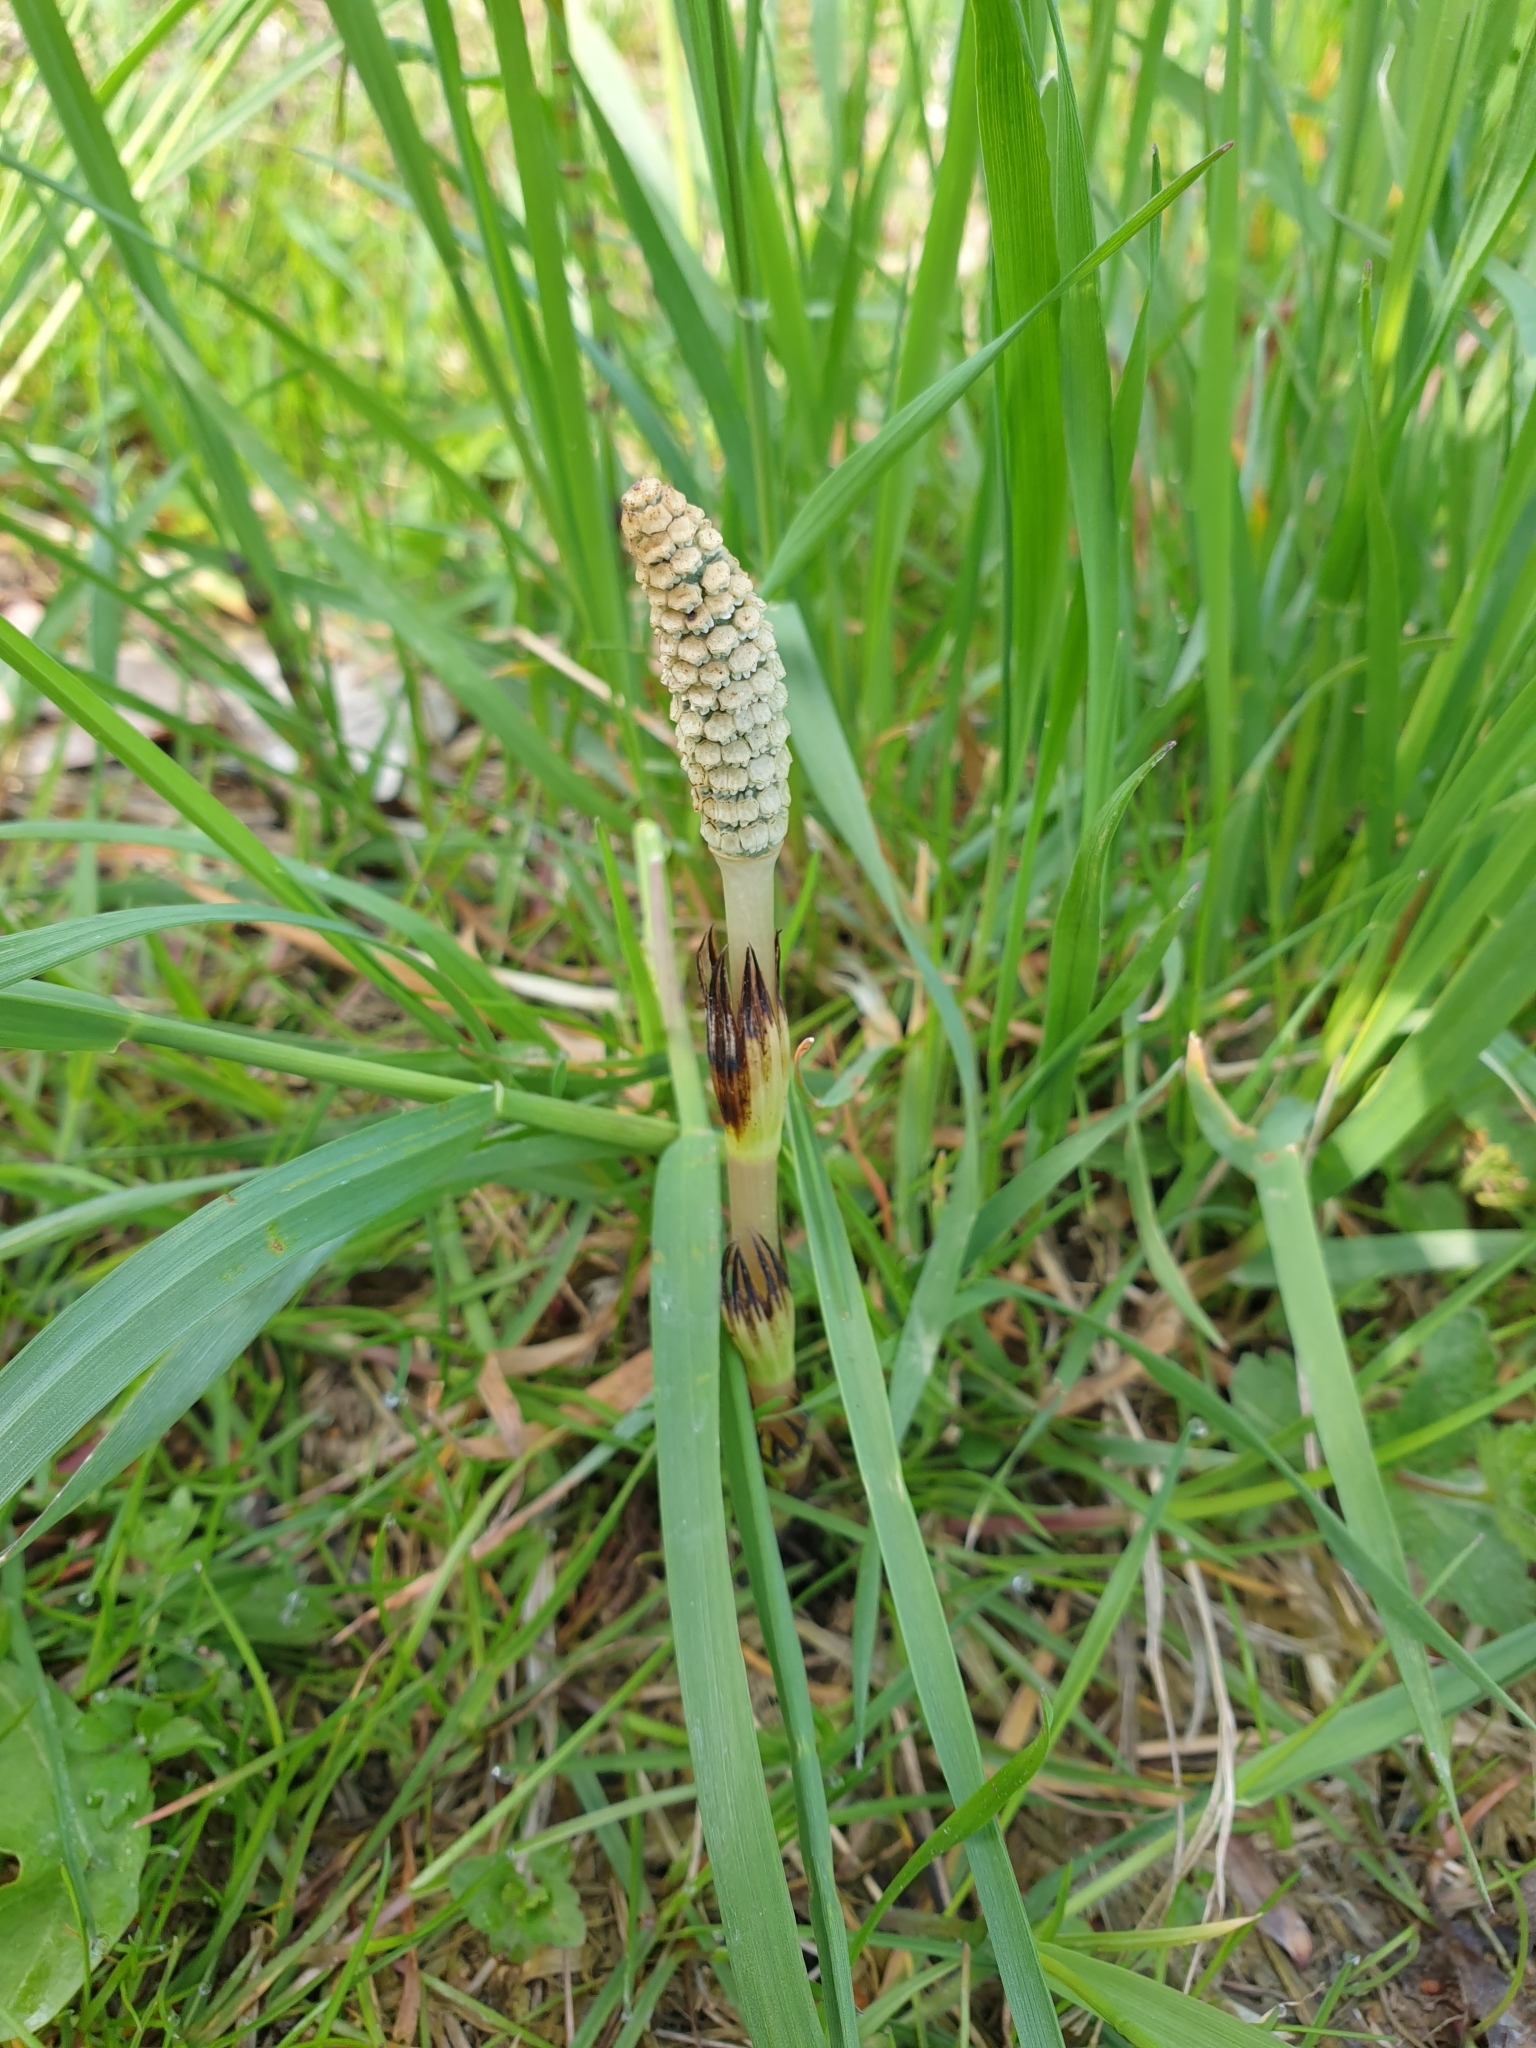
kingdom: Plantae
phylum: Tracheophyta
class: Polypodiopsida
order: Equisetales
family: Equisetaceae
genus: Equisetum
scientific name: Equisetum arvense
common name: Field horsetail
